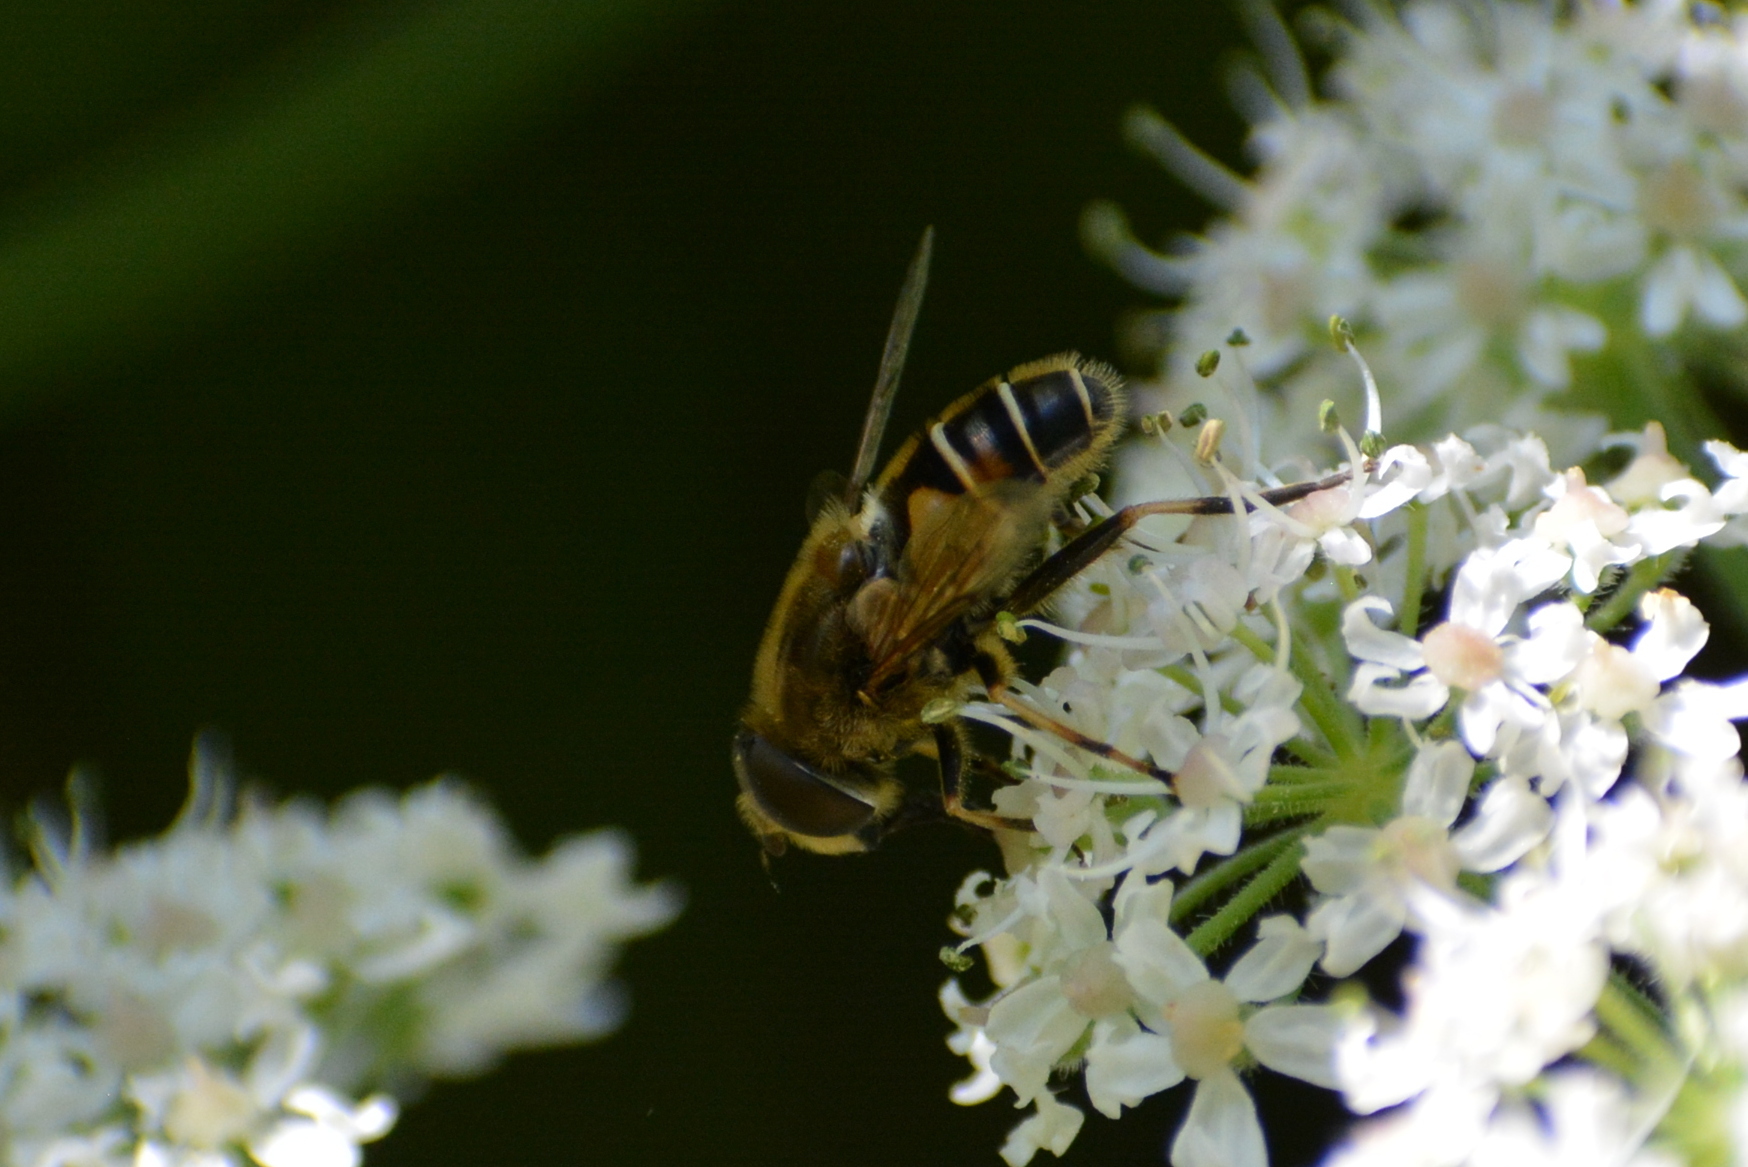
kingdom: Animalia
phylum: Arthropoda
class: Insecta
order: Diptera
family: Syrphidae
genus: Eristalis
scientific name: Eristalis nemorum
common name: Orange-spined drone fly
